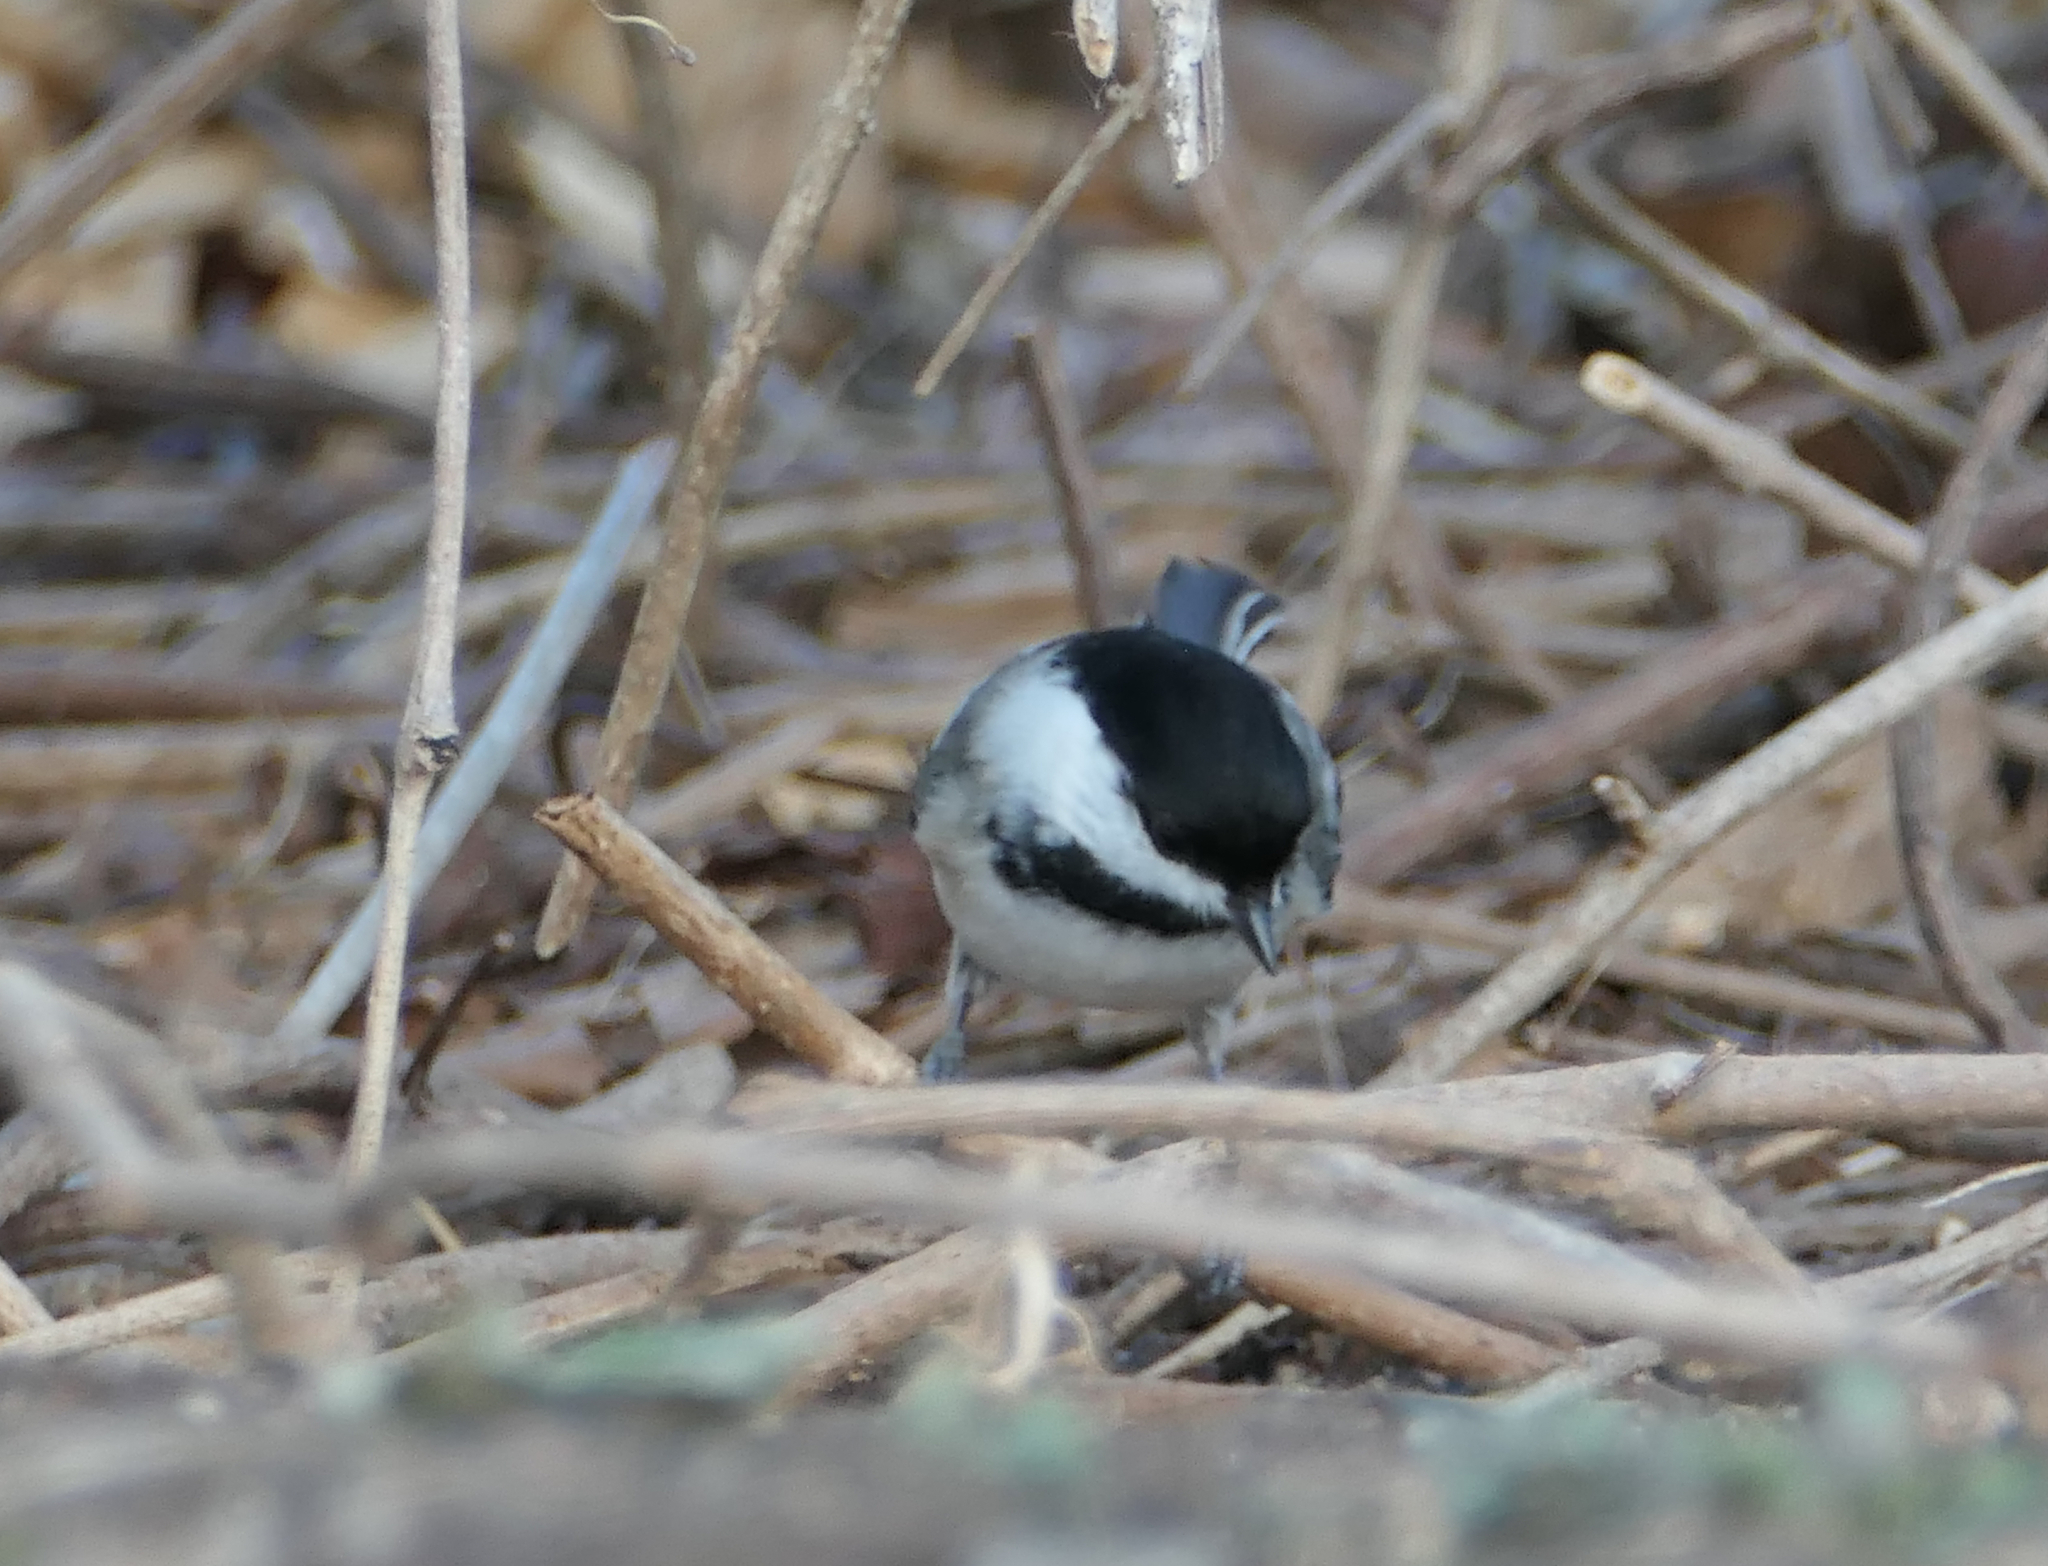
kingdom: Animalia
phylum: Chordata
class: Aves
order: Passeriformes
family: Paridae
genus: Poecile
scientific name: Poecile atricapillus
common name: Black-capped chickadee
